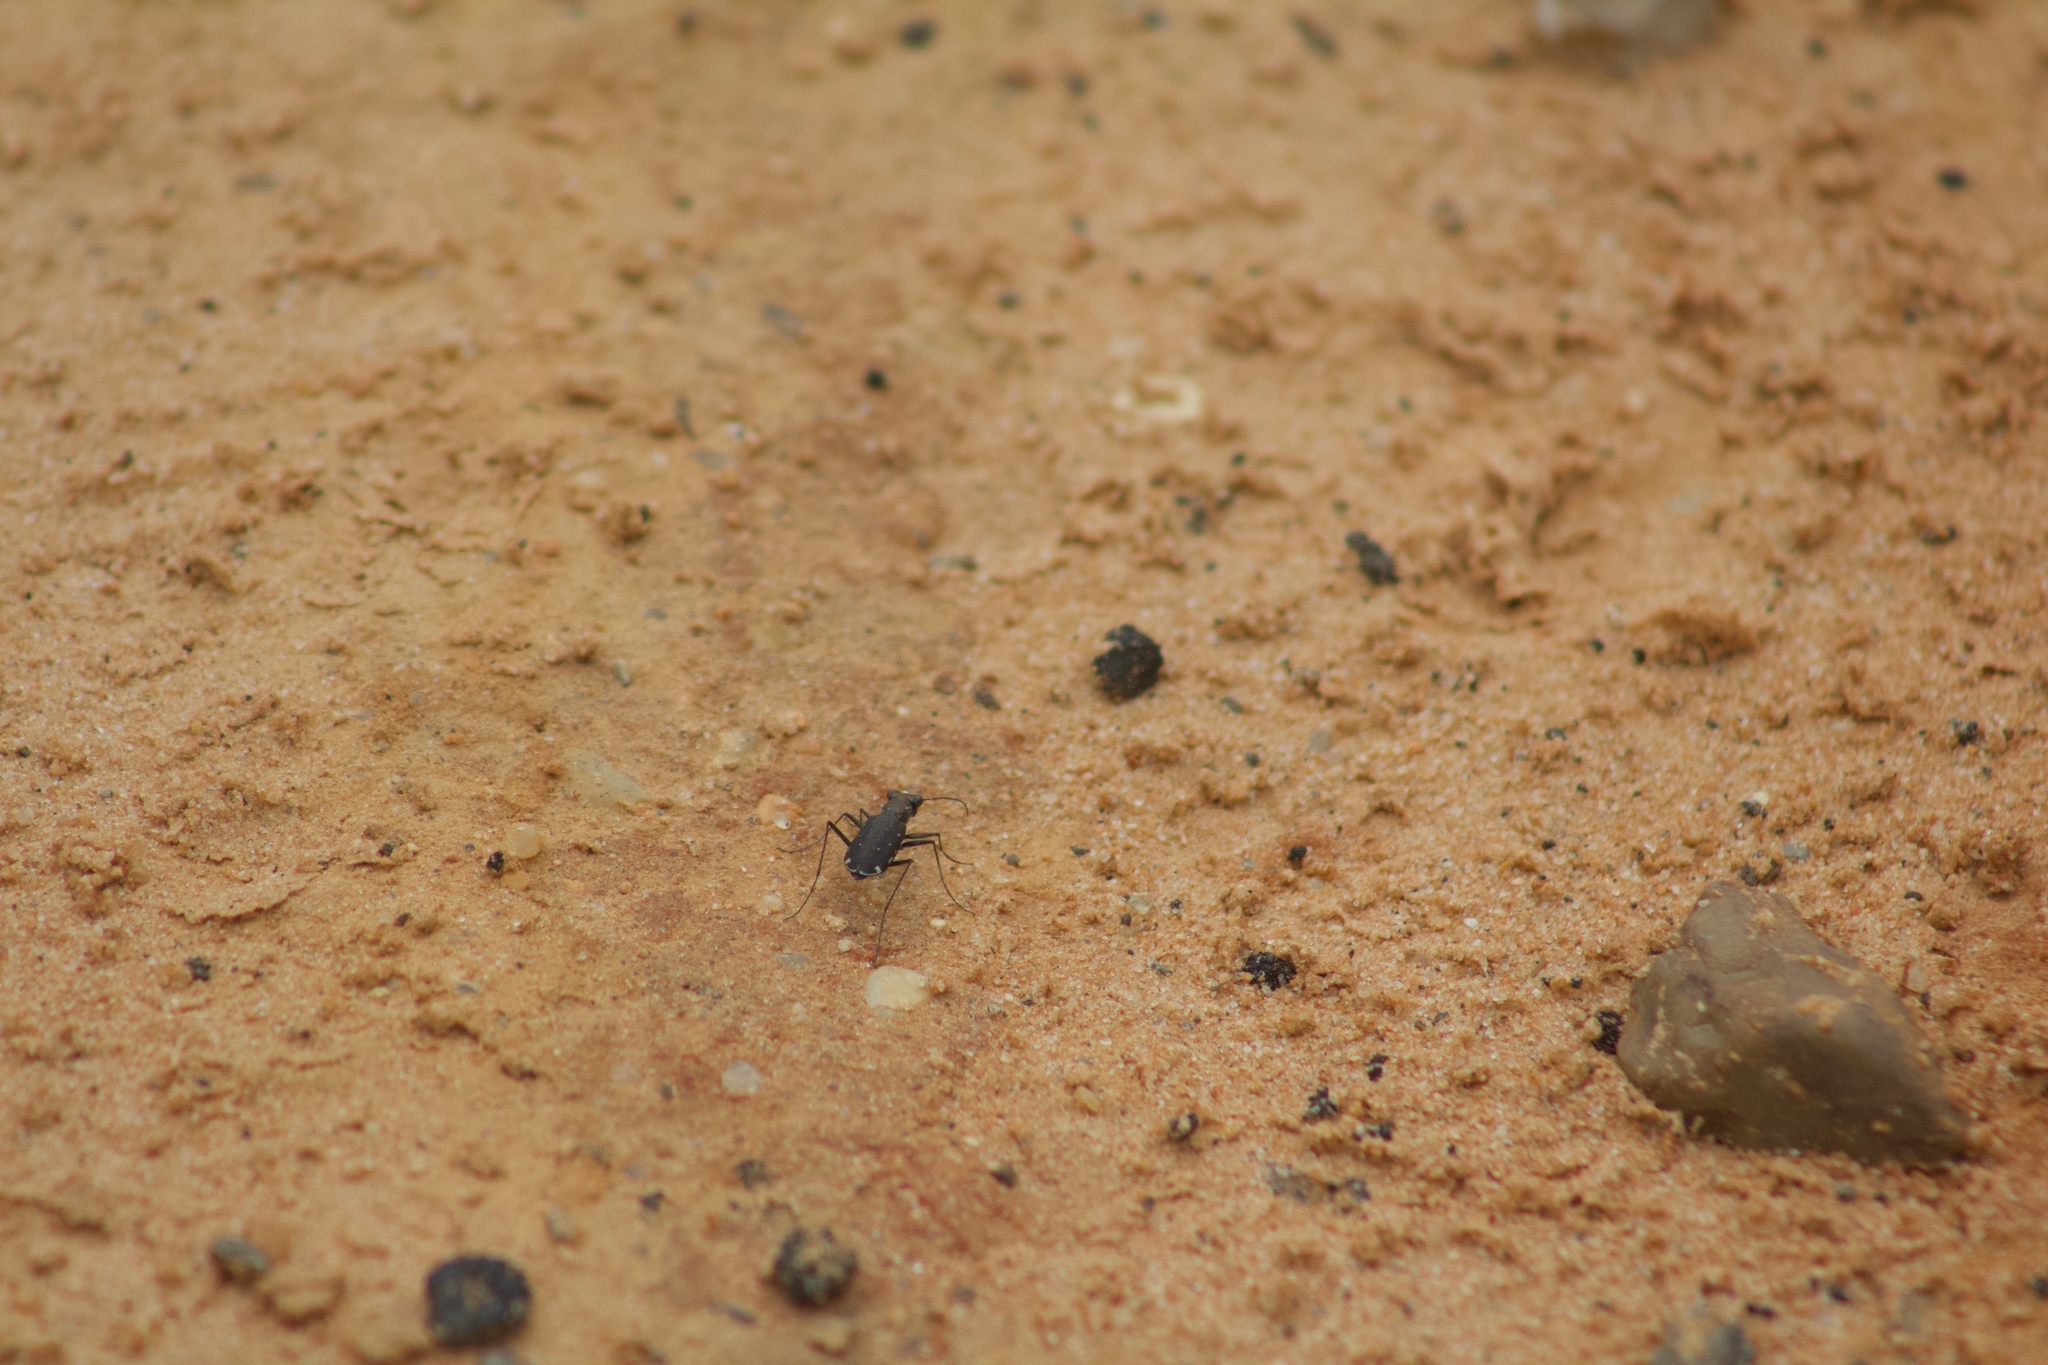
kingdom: Animalia
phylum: Arthropoda
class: Insecta
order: Coleoptera
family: Carabidae
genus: Cicindela
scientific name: Cicindela punctulata
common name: Punctured tiger beetle
